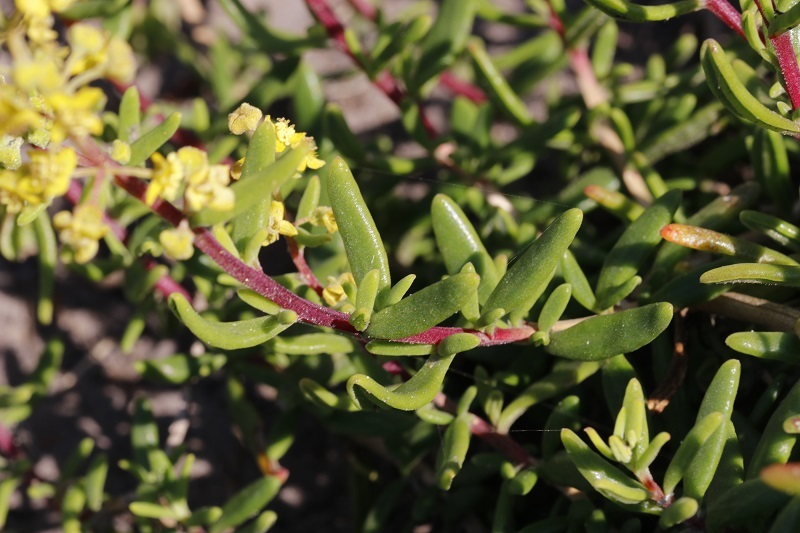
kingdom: Plantae
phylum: Tracheophyta
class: Magnoliopsida
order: Caryophyllales
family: Aizoaceae
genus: Tetragonia
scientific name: Tetragonia fruticosa
